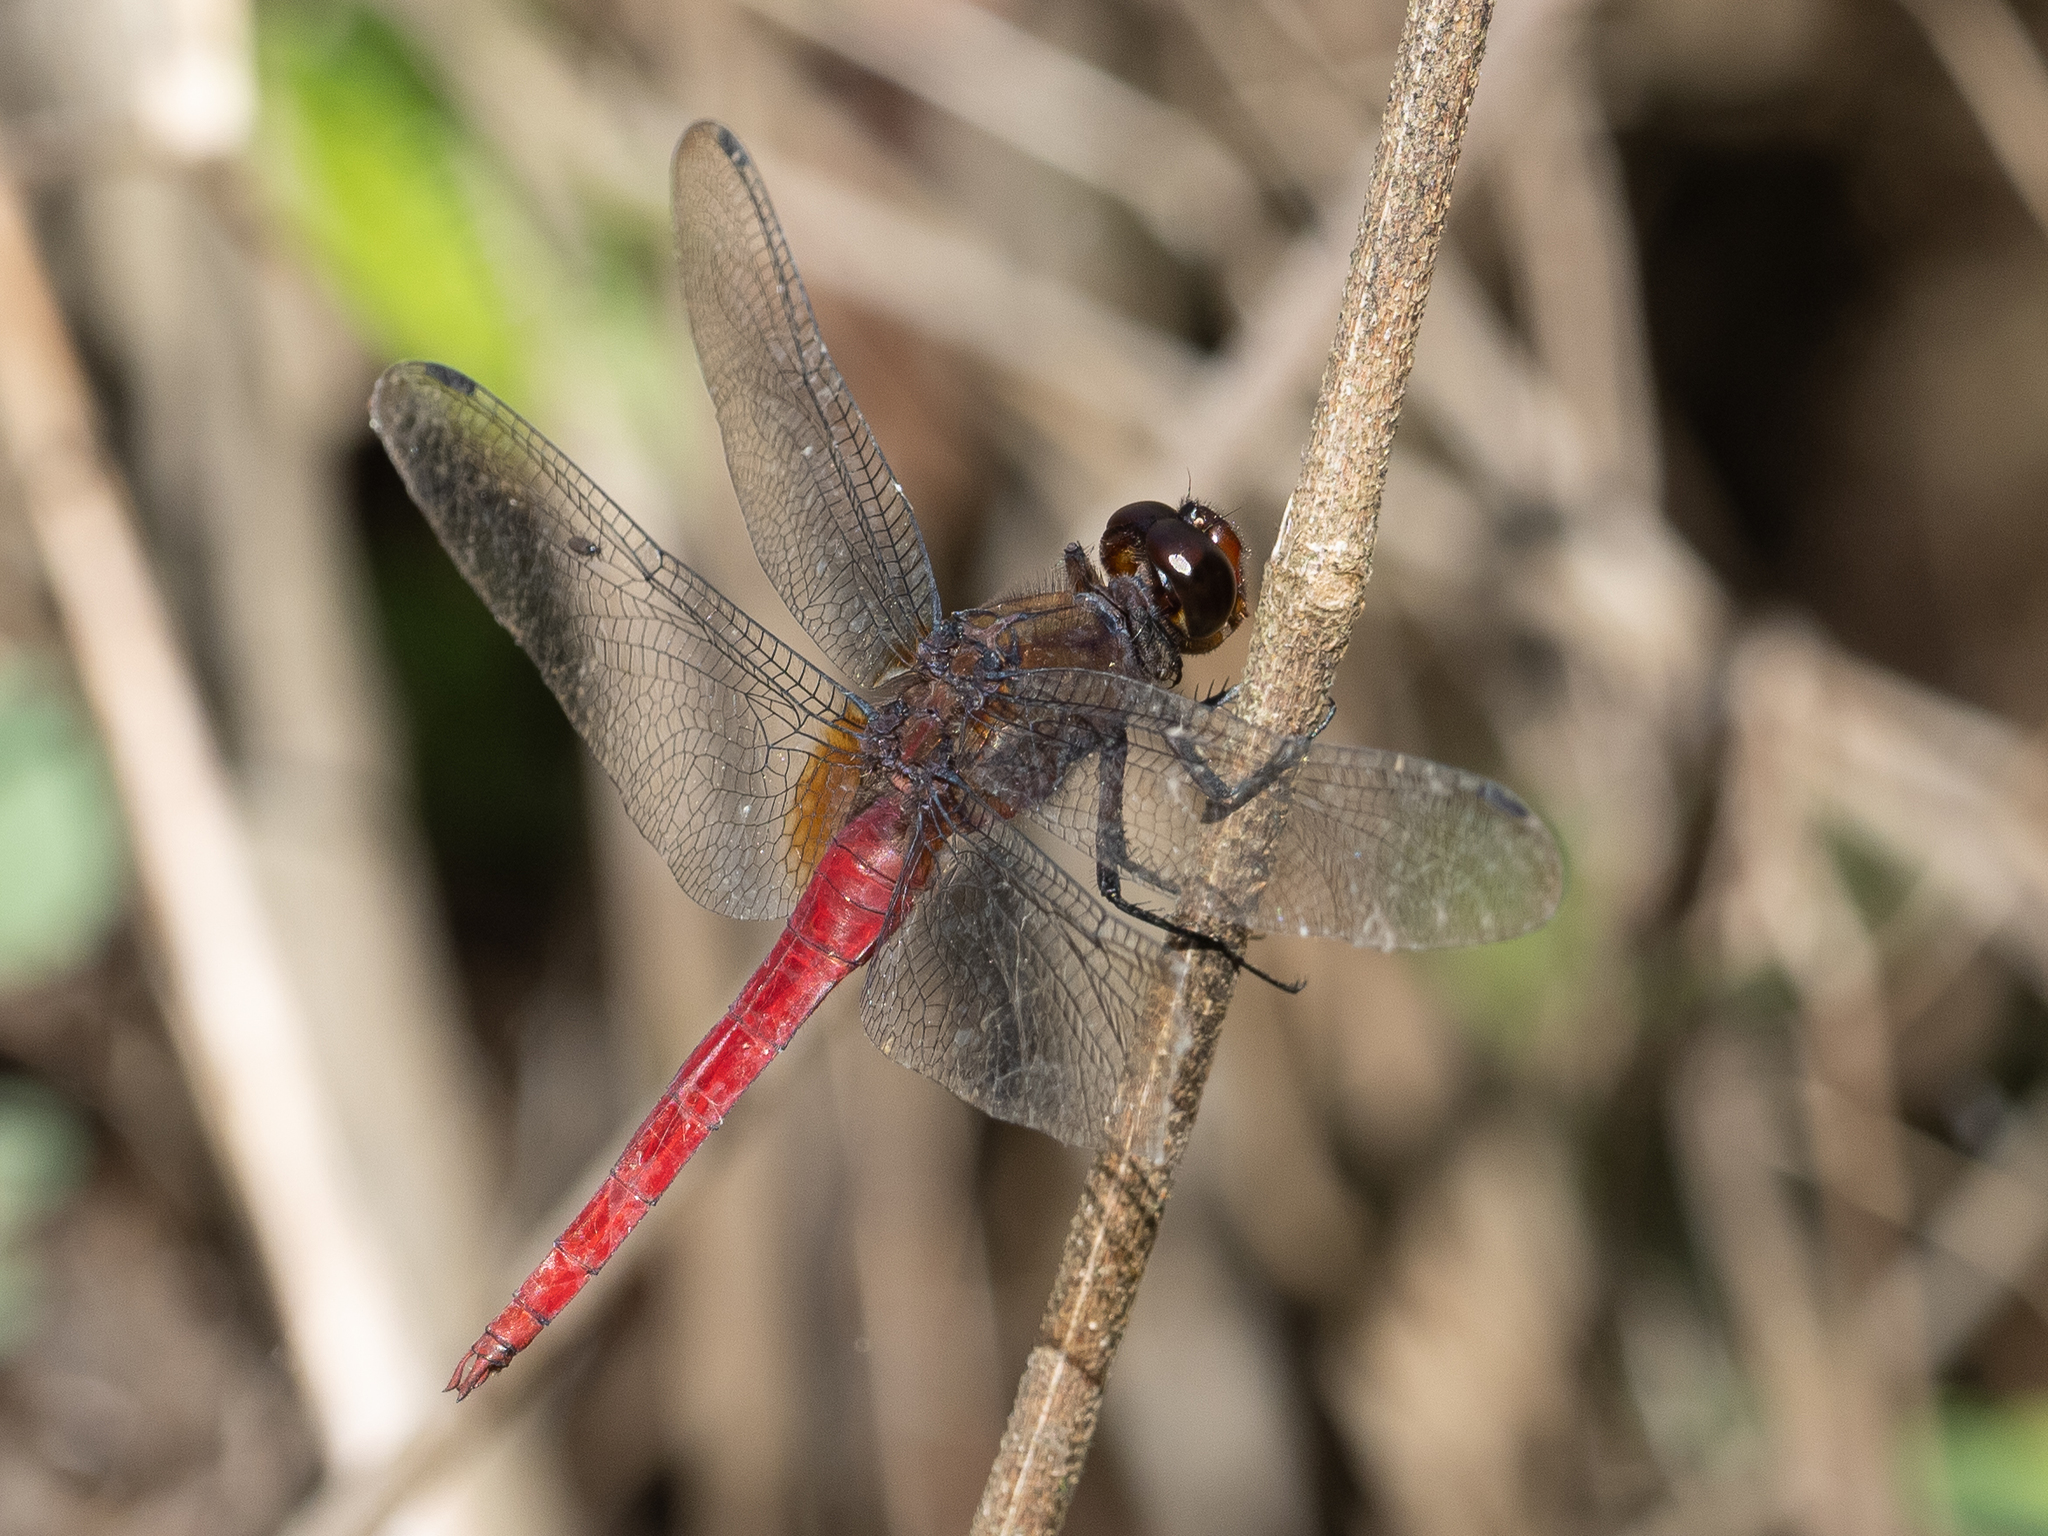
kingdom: Animalia
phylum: Arthropoda
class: Insecta
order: Odonata
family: Libellulidae
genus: Orthetrum
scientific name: Orthetrum chrysis
